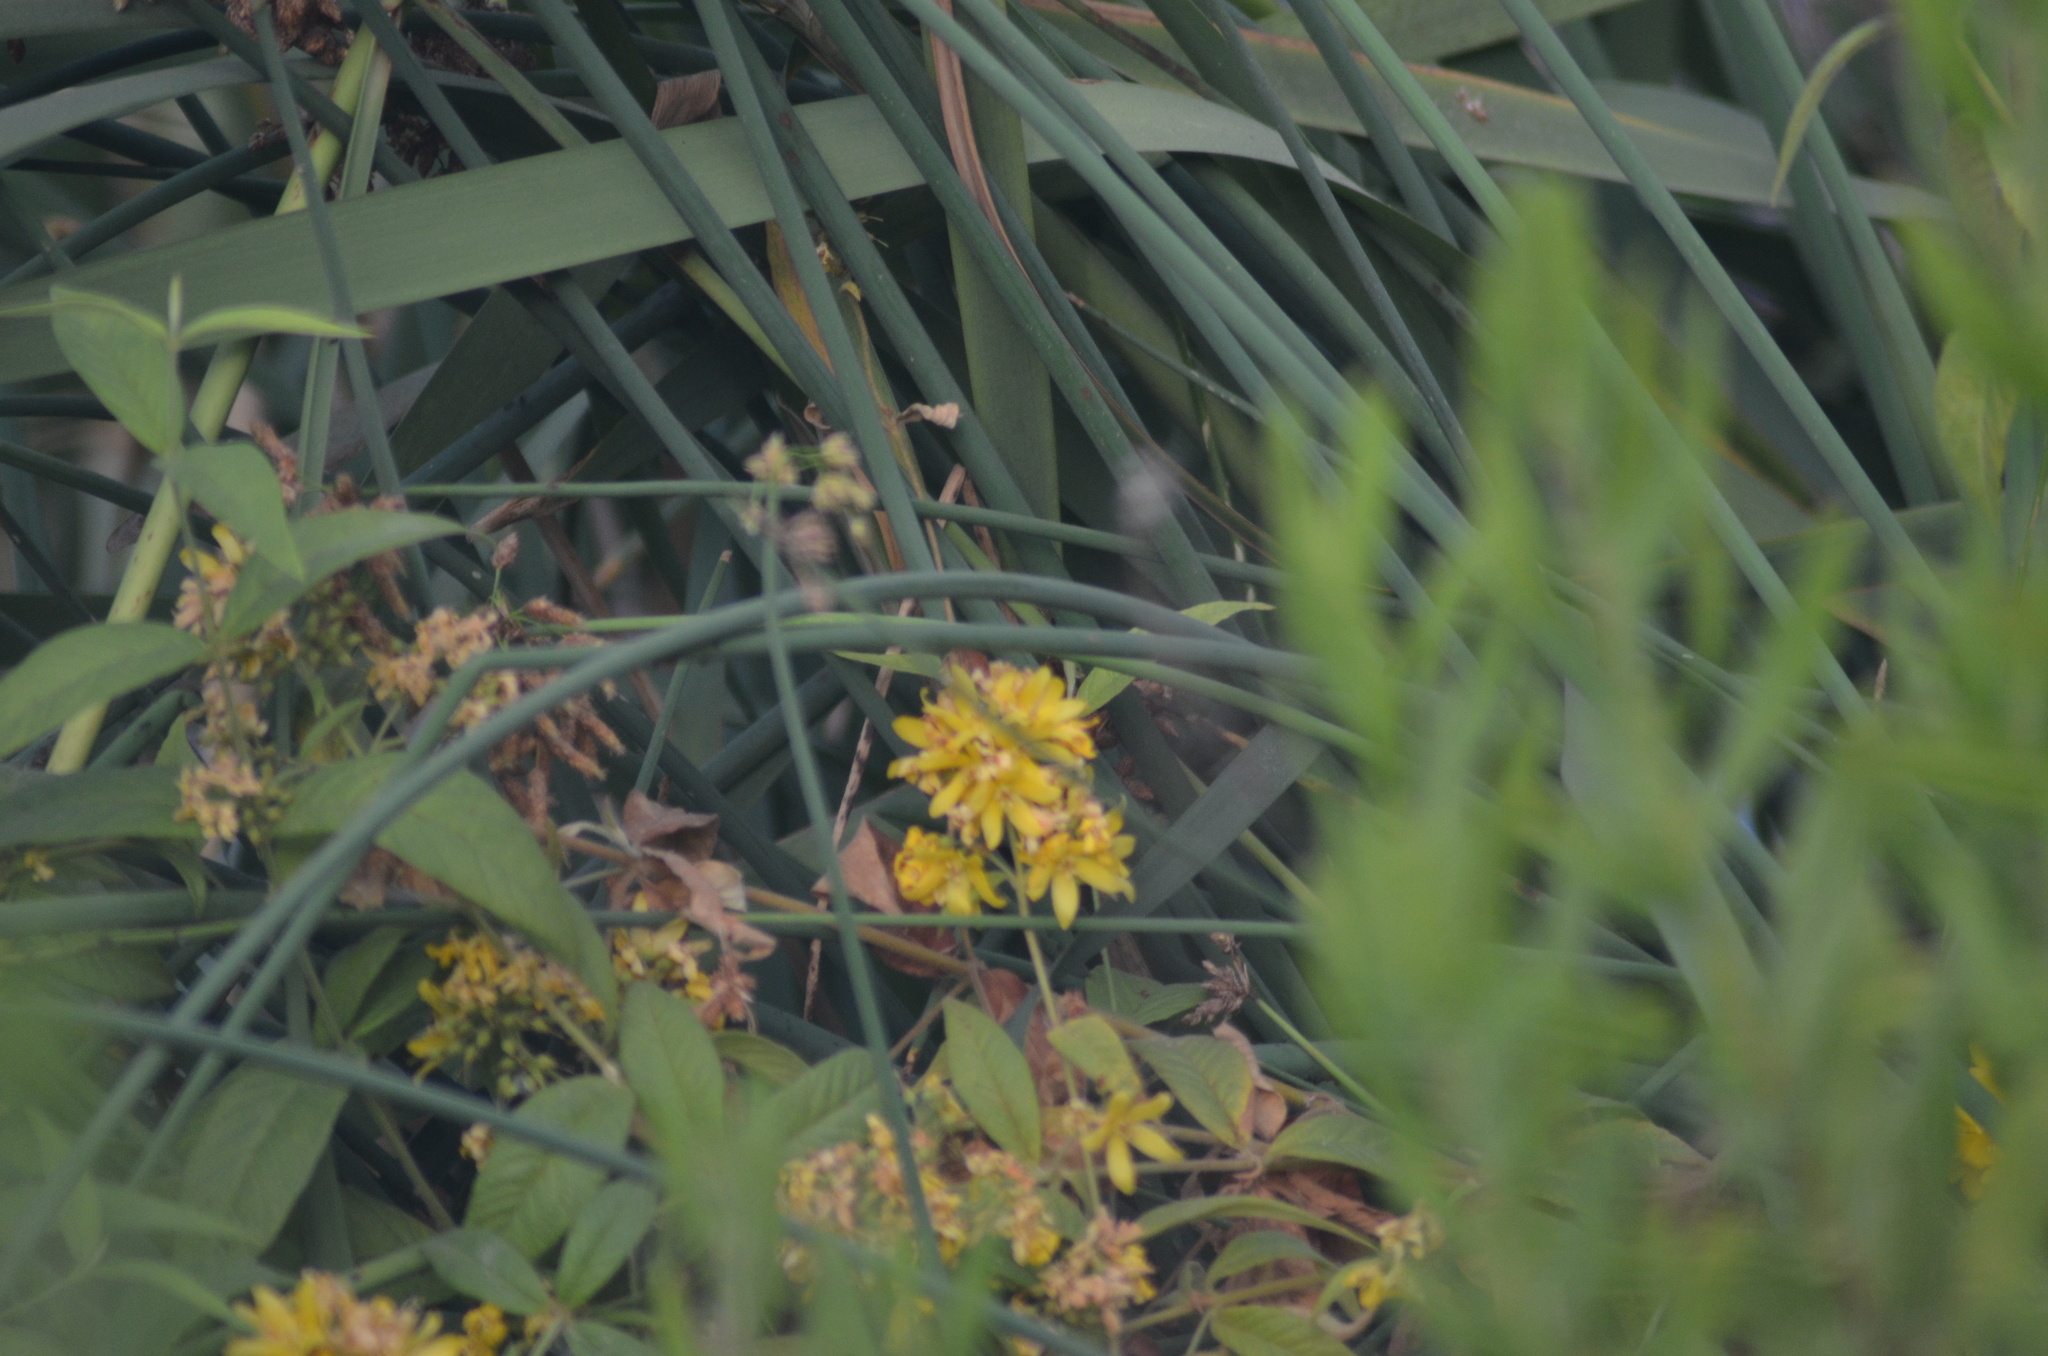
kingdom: Plantae
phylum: Tracheophyta
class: Magnoliopsida
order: Ericales
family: Primulaceae
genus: Lysimachia
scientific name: Lysimachia vulgaris
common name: Yellow loosestrife
